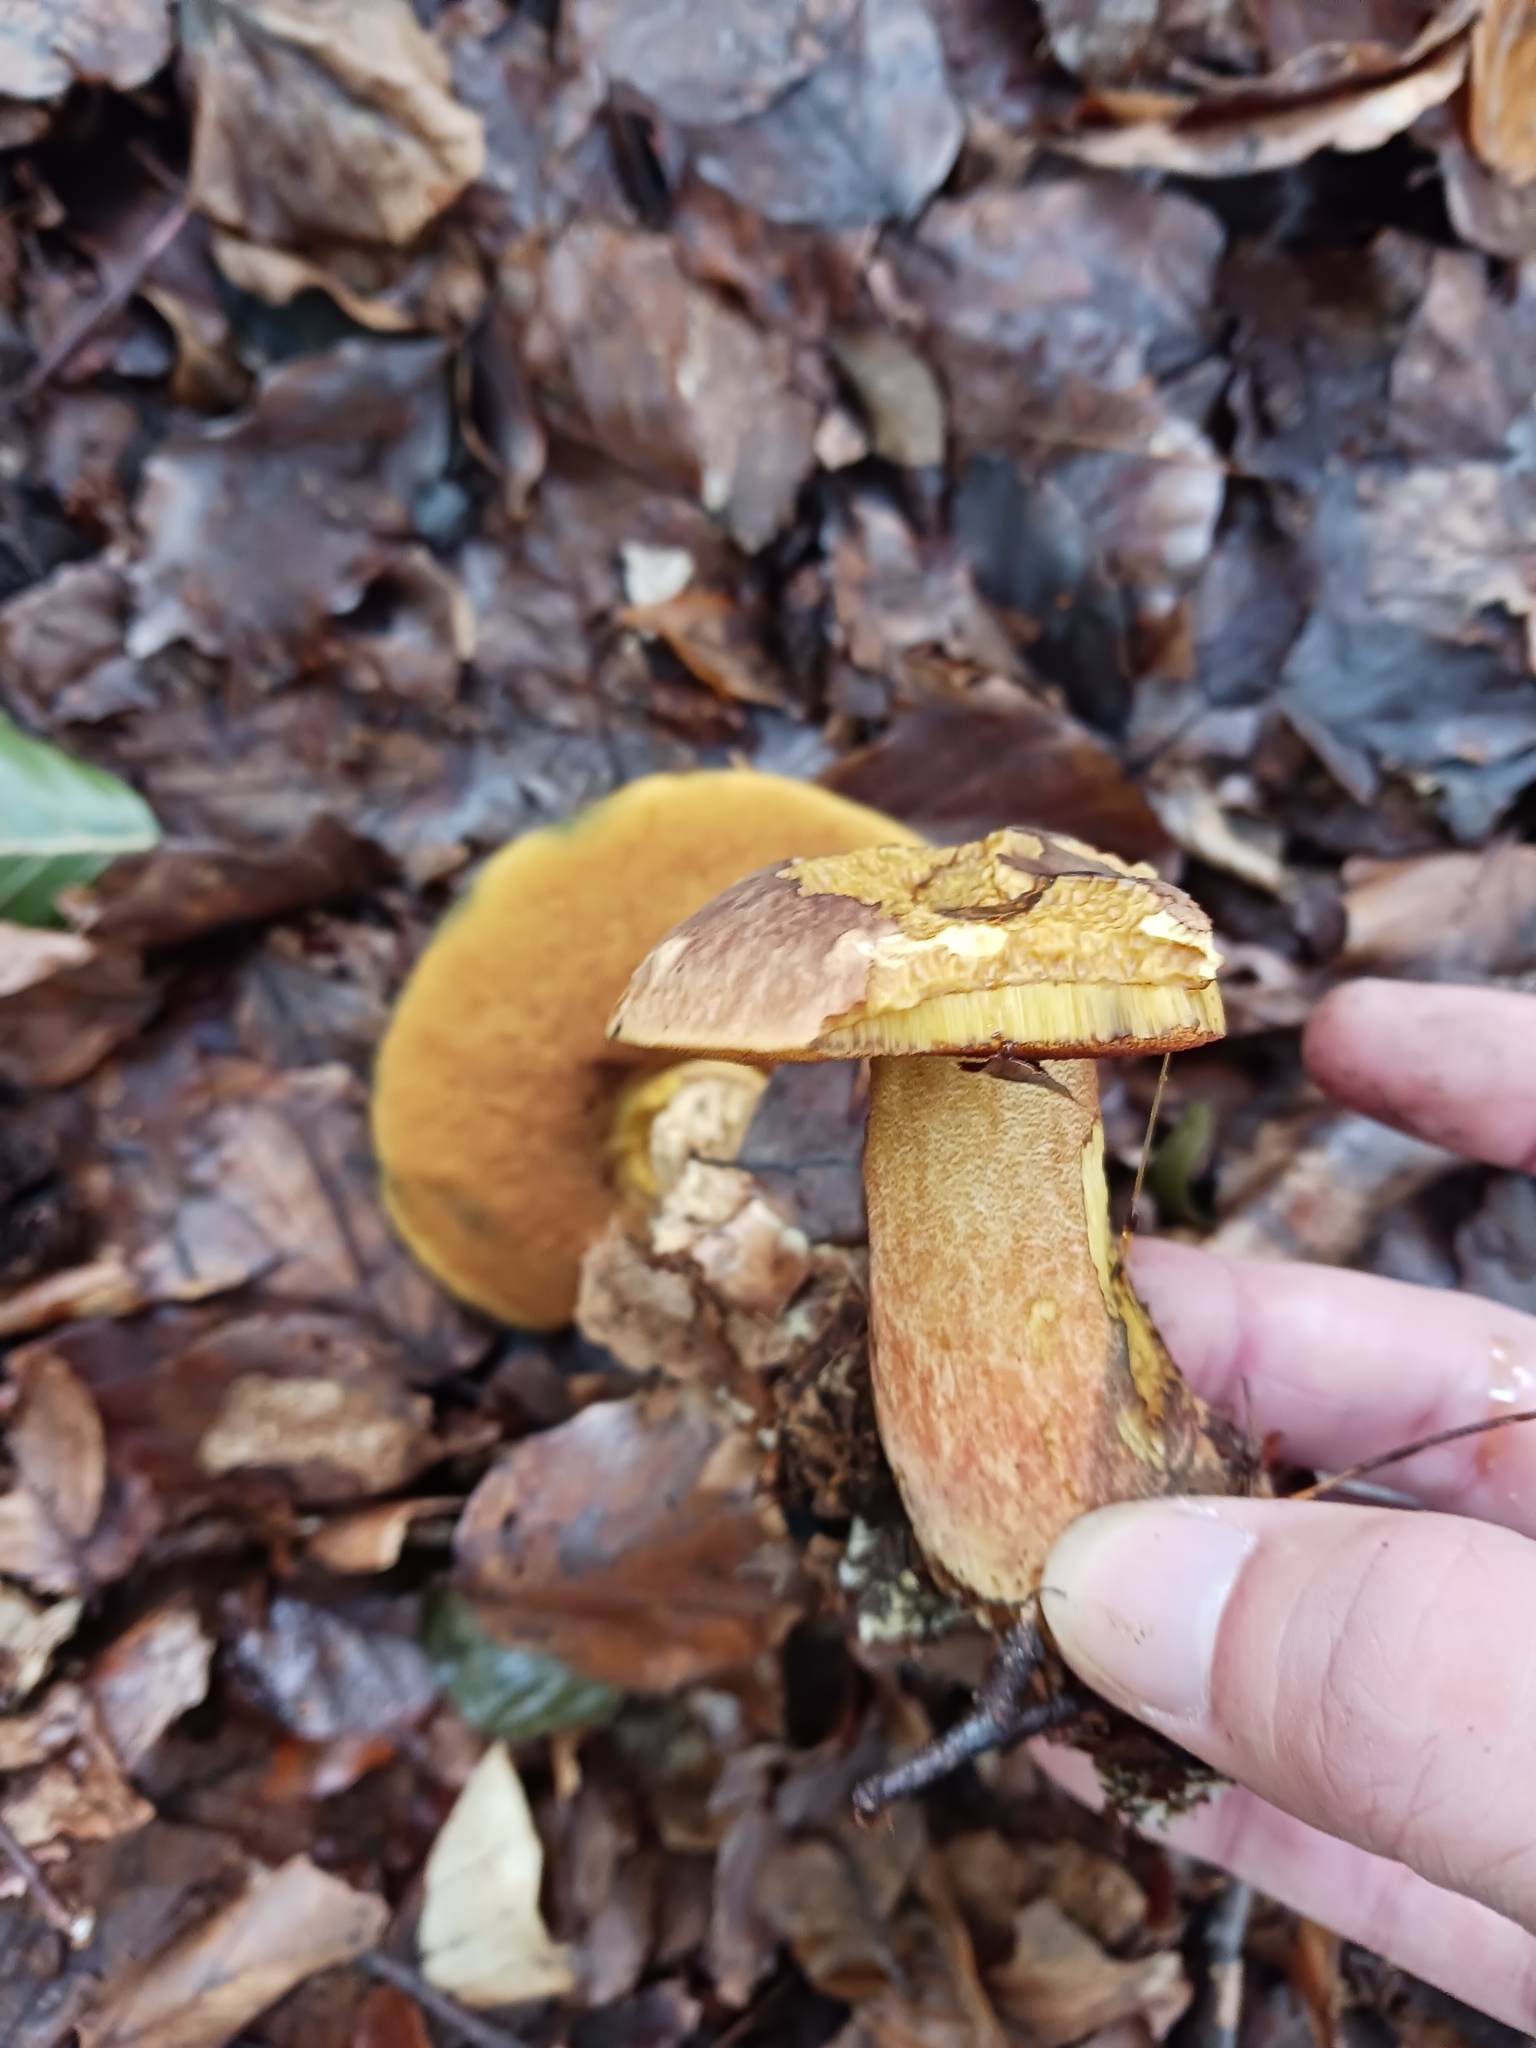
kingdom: Fungi
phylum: Basidiomycota
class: Agaricomycetes
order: Boletales
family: Boletaceae
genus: Neoboletus
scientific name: Neoboletus erythropus
